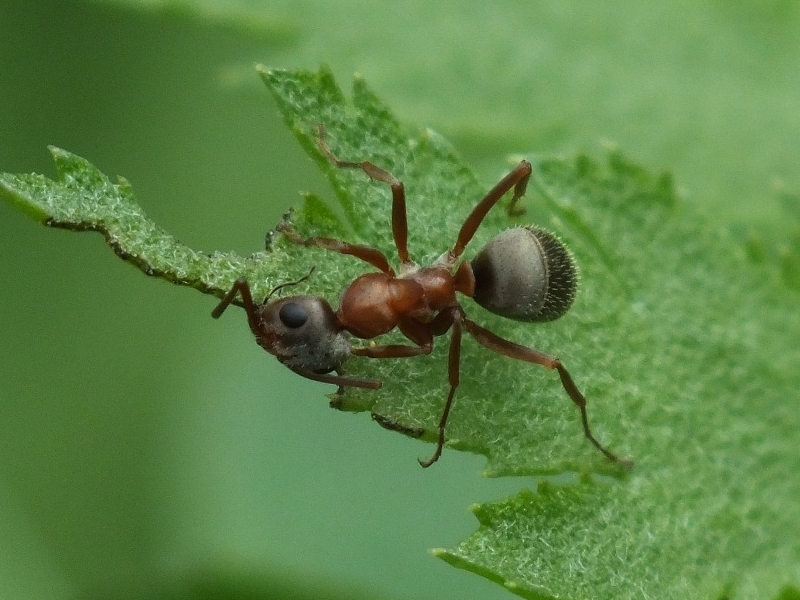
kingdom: Animalia
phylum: Arthropoda
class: Insecta
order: Hymenoptera
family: Formicidae
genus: Formica
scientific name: Formica cinerea
